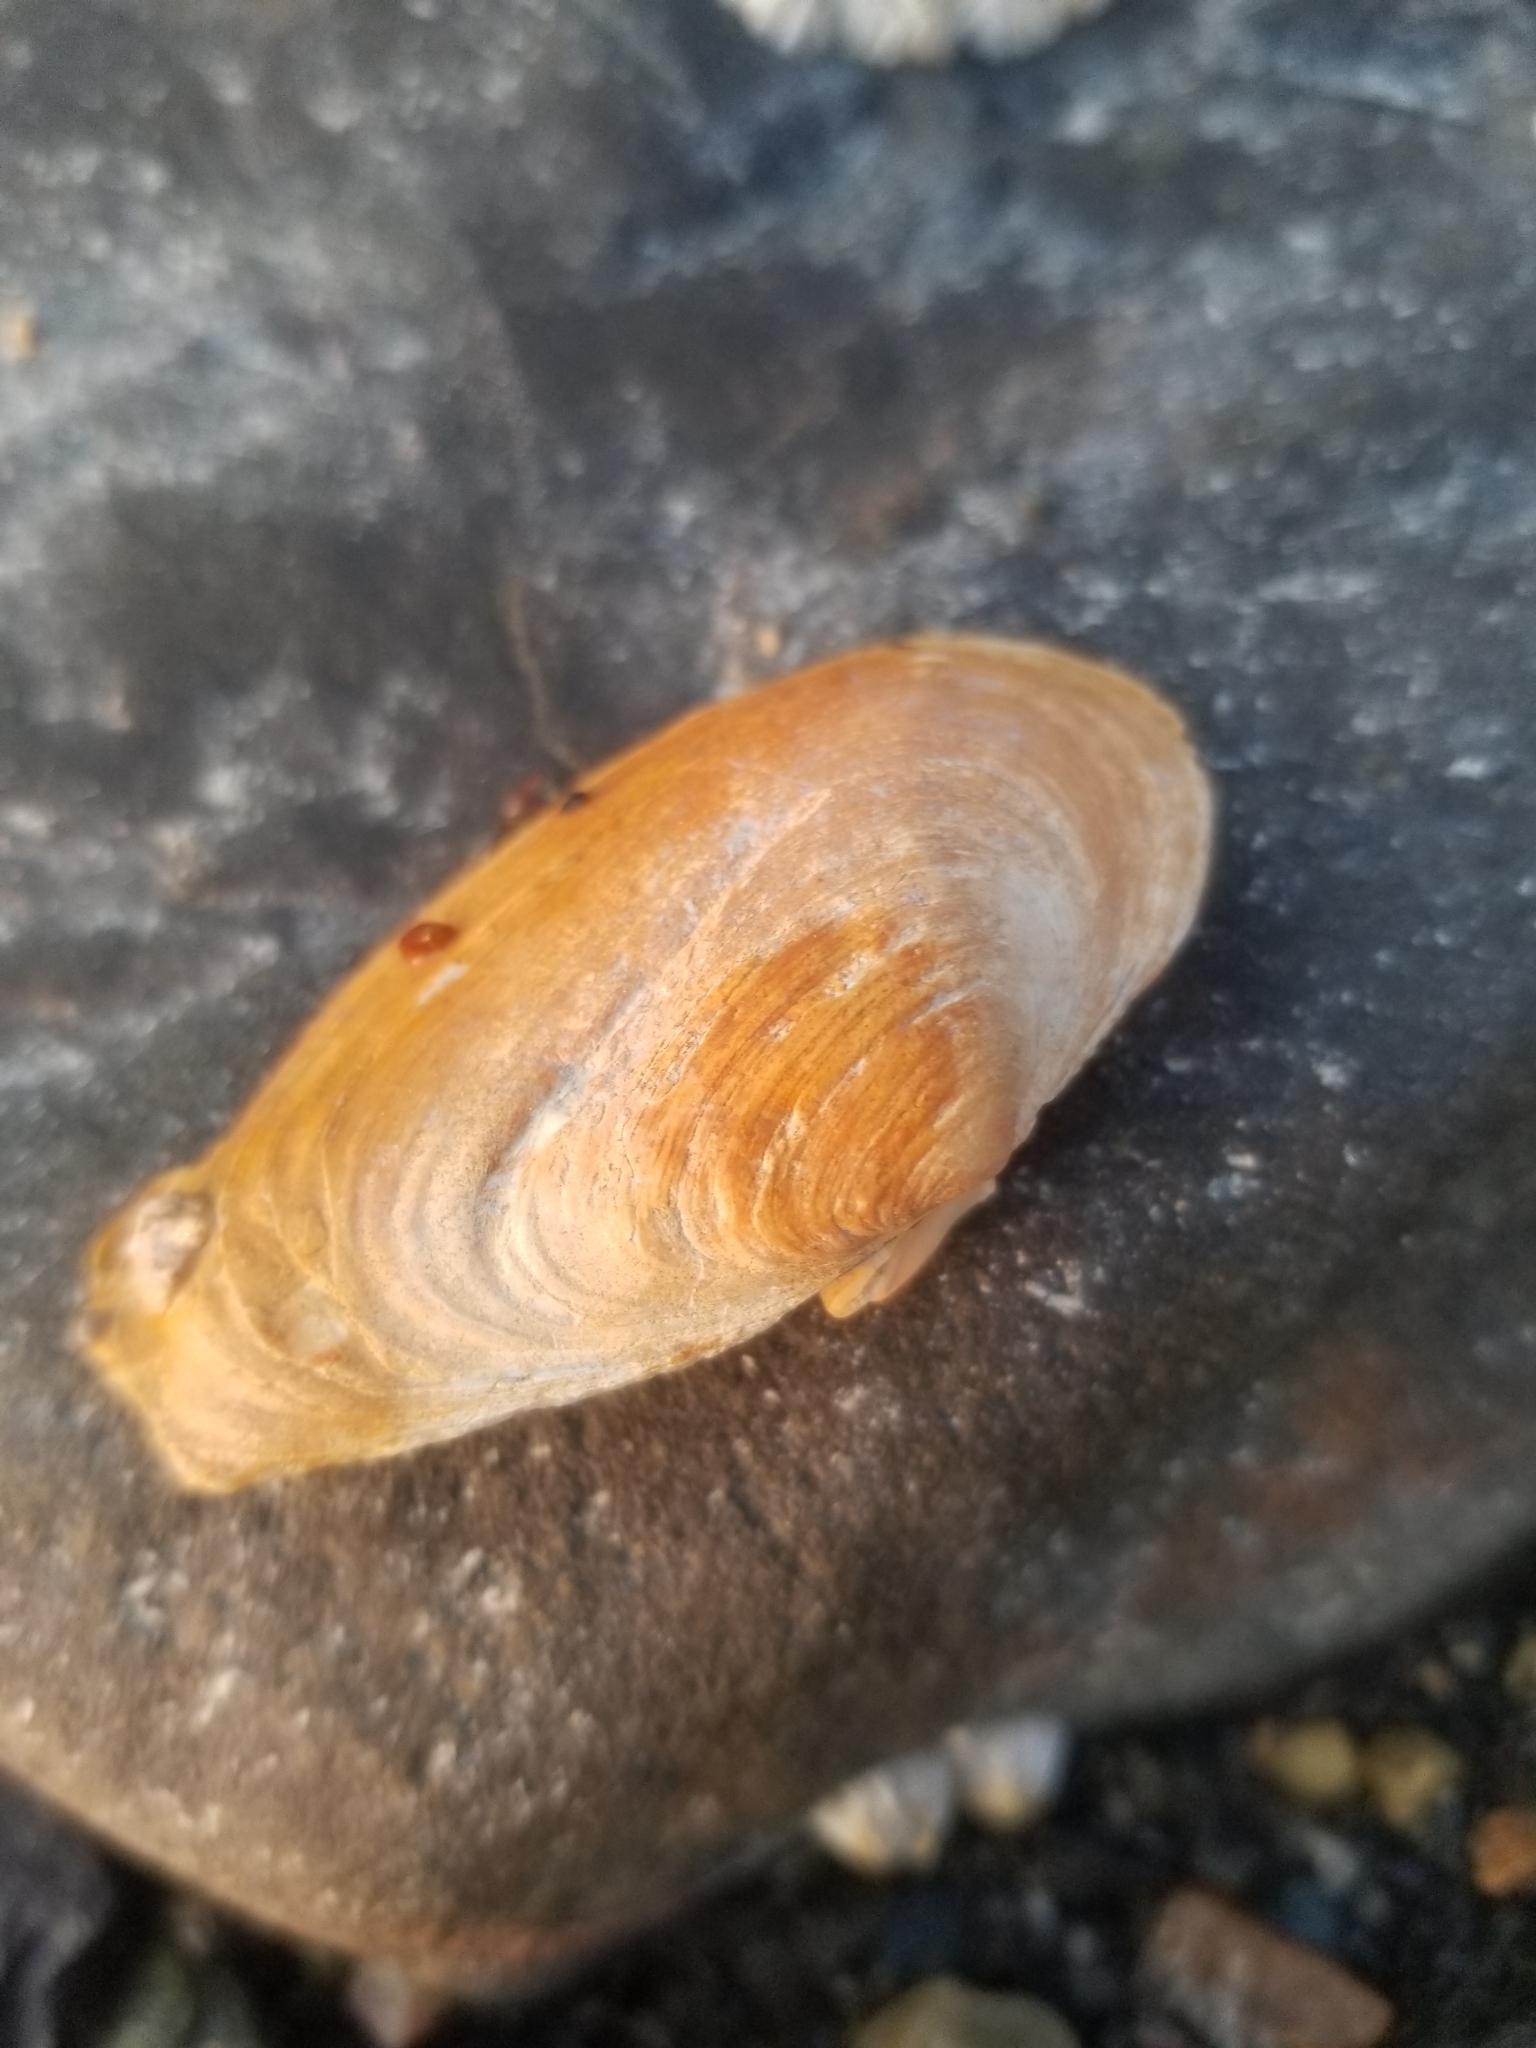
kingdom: Animalia
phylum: Mollusca
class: Bivalvia
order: Myida
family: Myidae
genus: Mya
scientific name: Mya arenaria
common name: Soft-shelled clam
